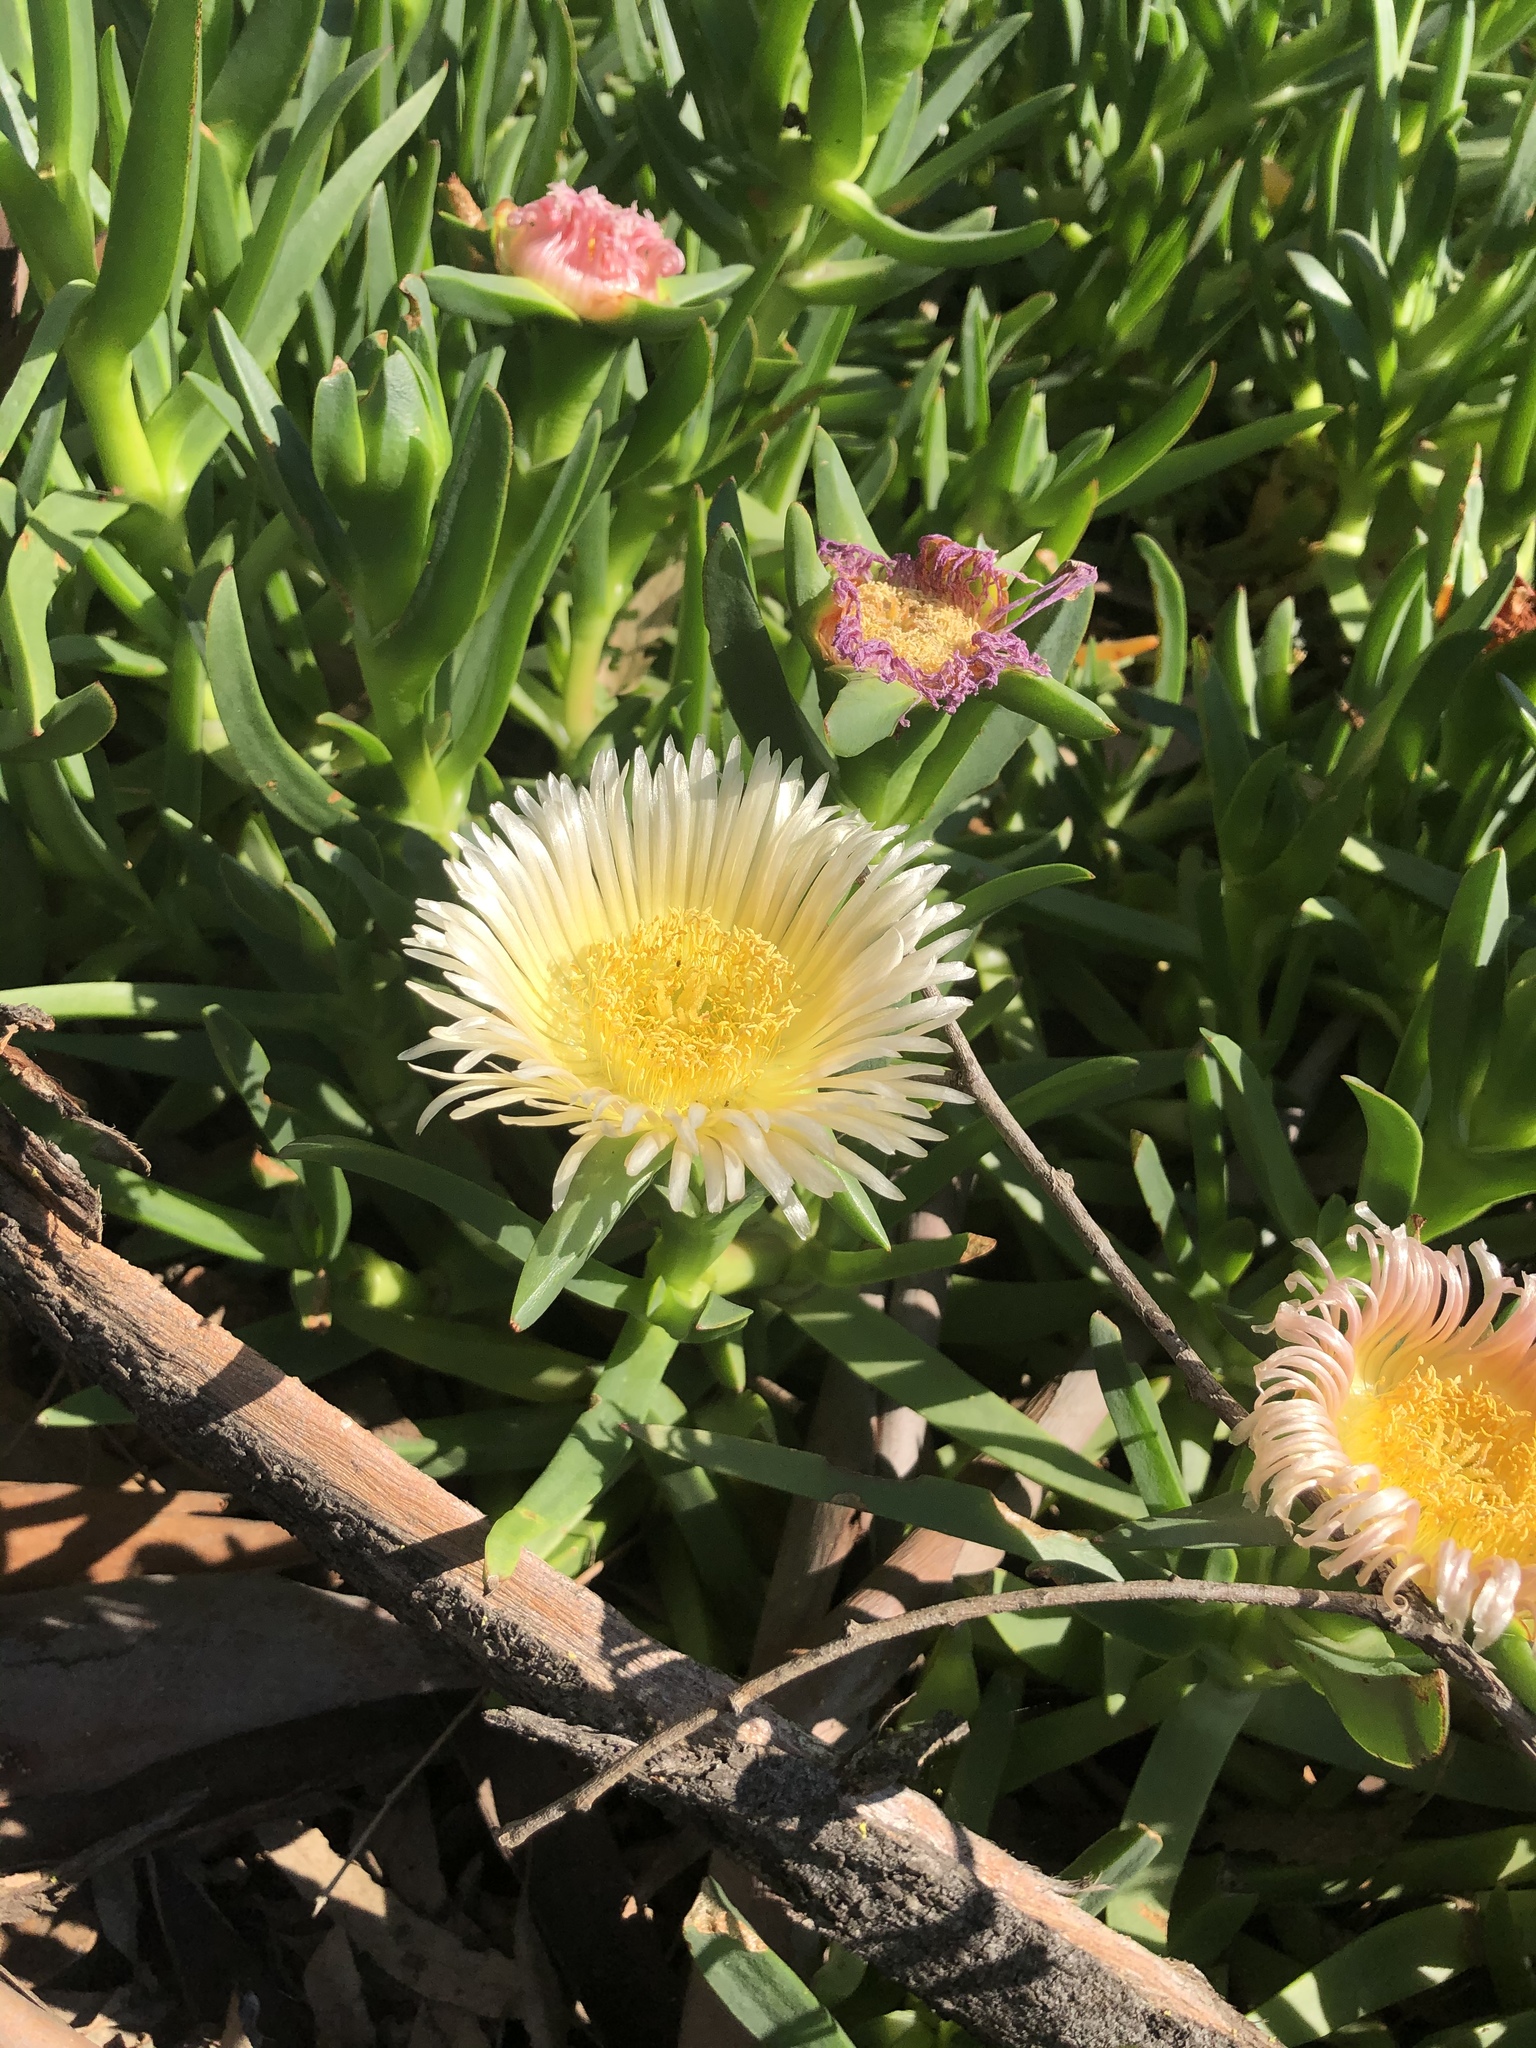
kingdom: Plantae
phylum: Tracheophyta
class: Magnoliopsida
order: Caryophyllales
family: Aizoaceae
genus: Carpobrotus
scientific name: Carpobrotus edulis
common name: Hottentot-fig
